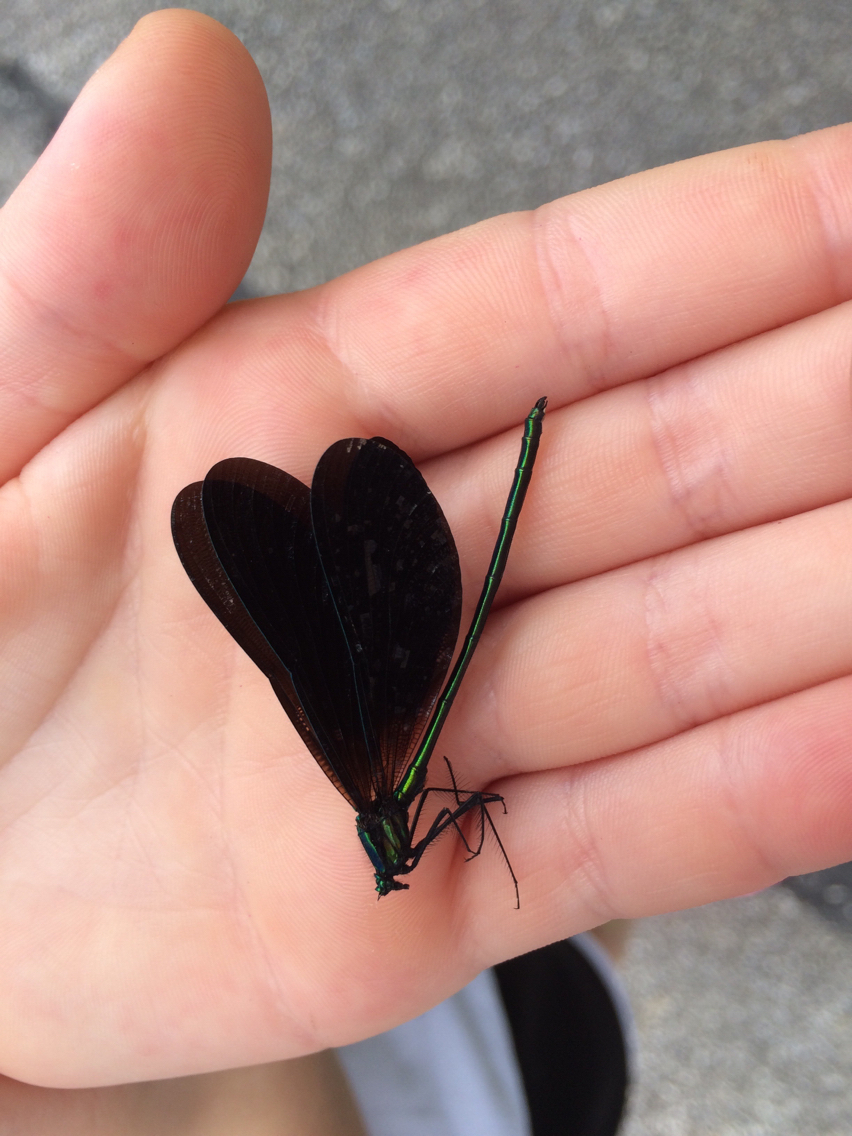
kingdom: Animalia
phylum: Arthropoda
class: Insecta
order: Odonata
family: Calopterygidae
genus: Calopteryx
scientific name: Calopteryx maculata
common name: Ebony jewelwing
